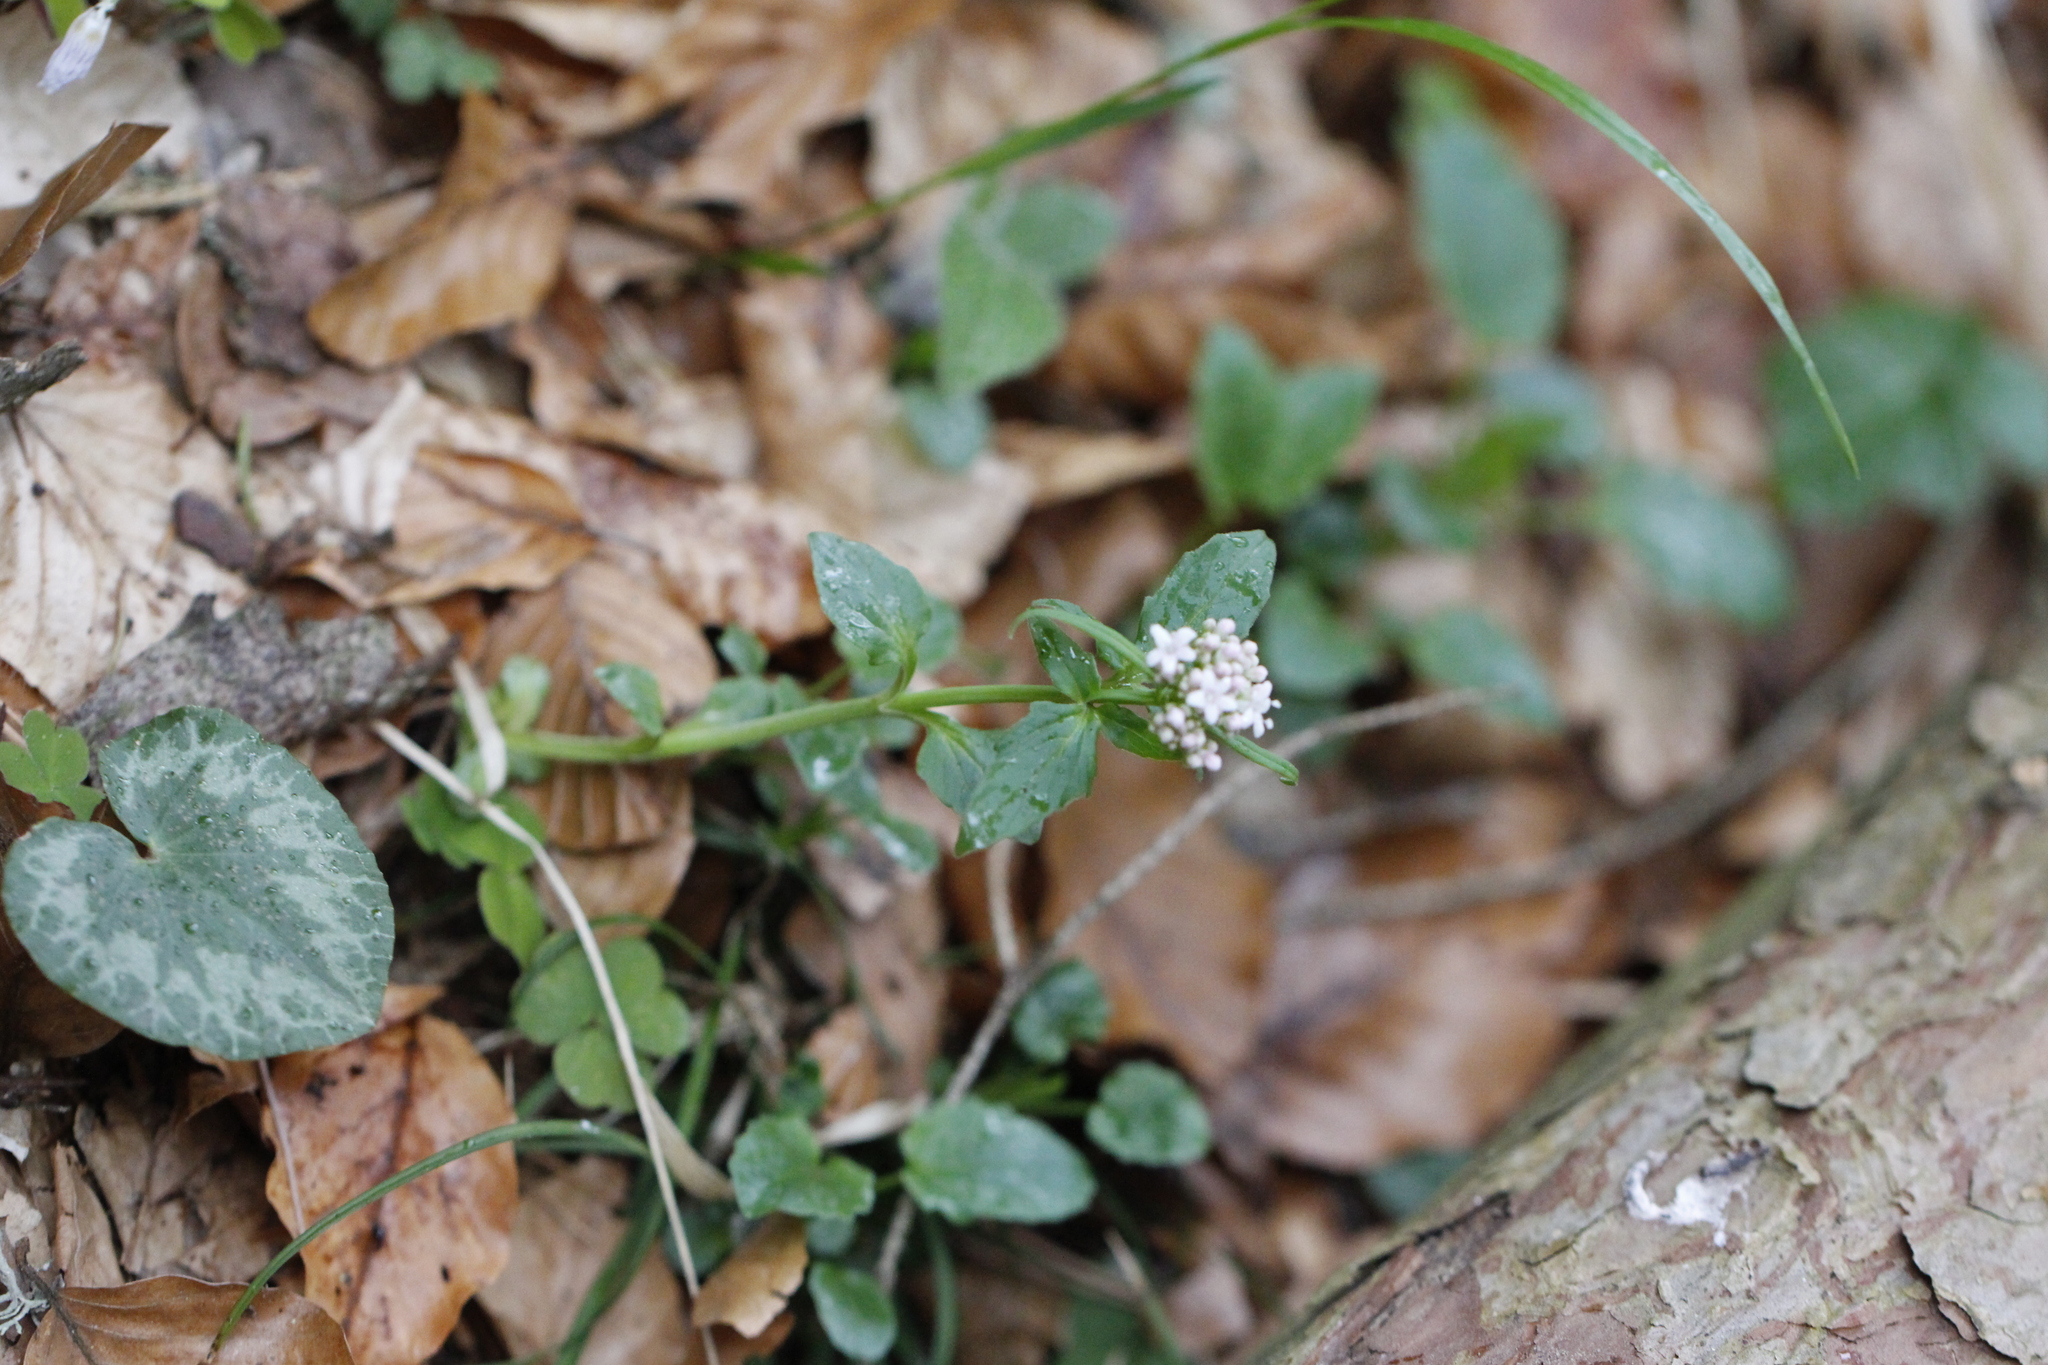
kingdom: Plantae
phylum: Tracheophyta
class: Magnoliopsida
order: Dipsacales
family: Caprifoliaceae
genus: Valeriana
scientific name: Valeriana tripteris
